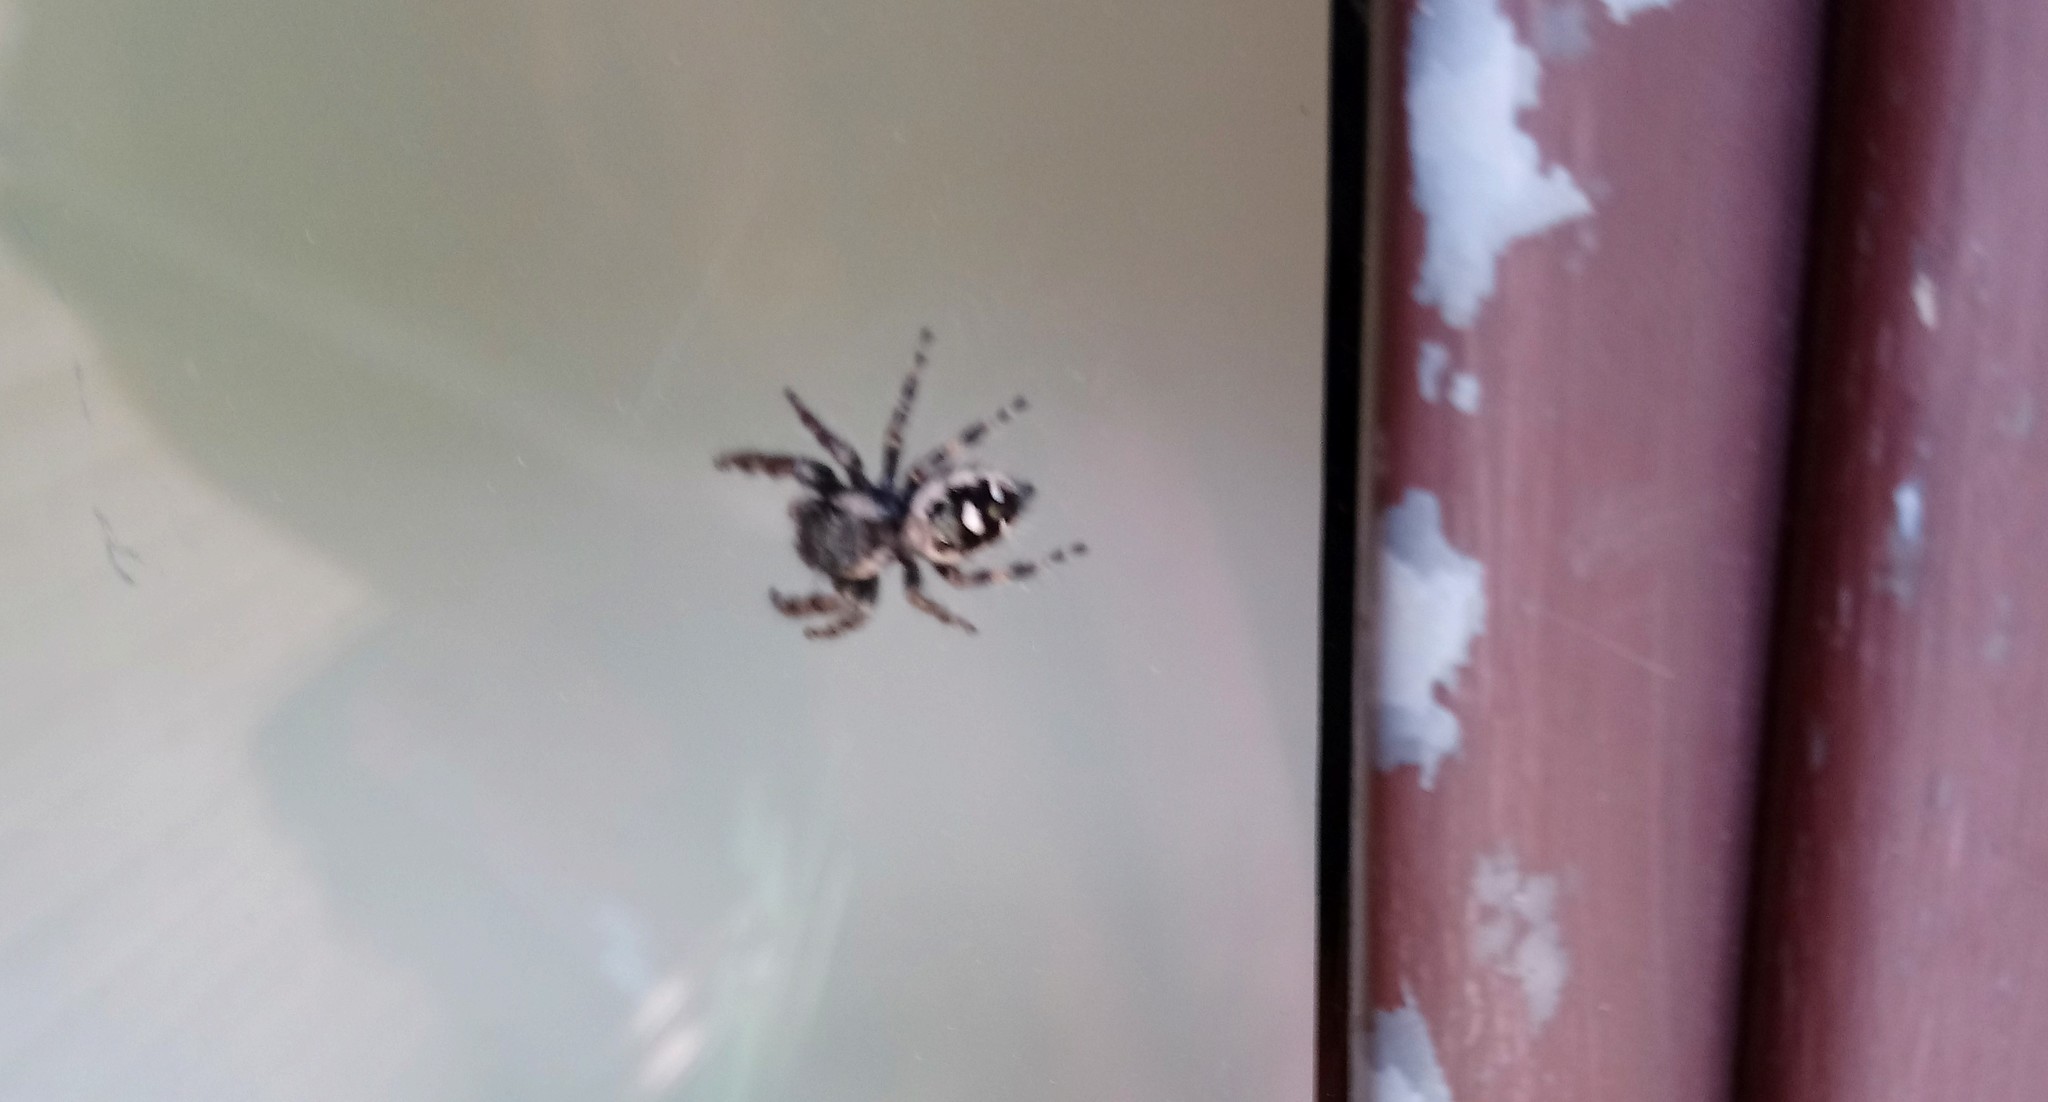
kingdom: Animalia
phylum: Arthropoda
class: Arachnida
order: Araneae
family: Salticidae
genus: Phidippus
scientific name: Phidippus audax
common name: Bold jumper
